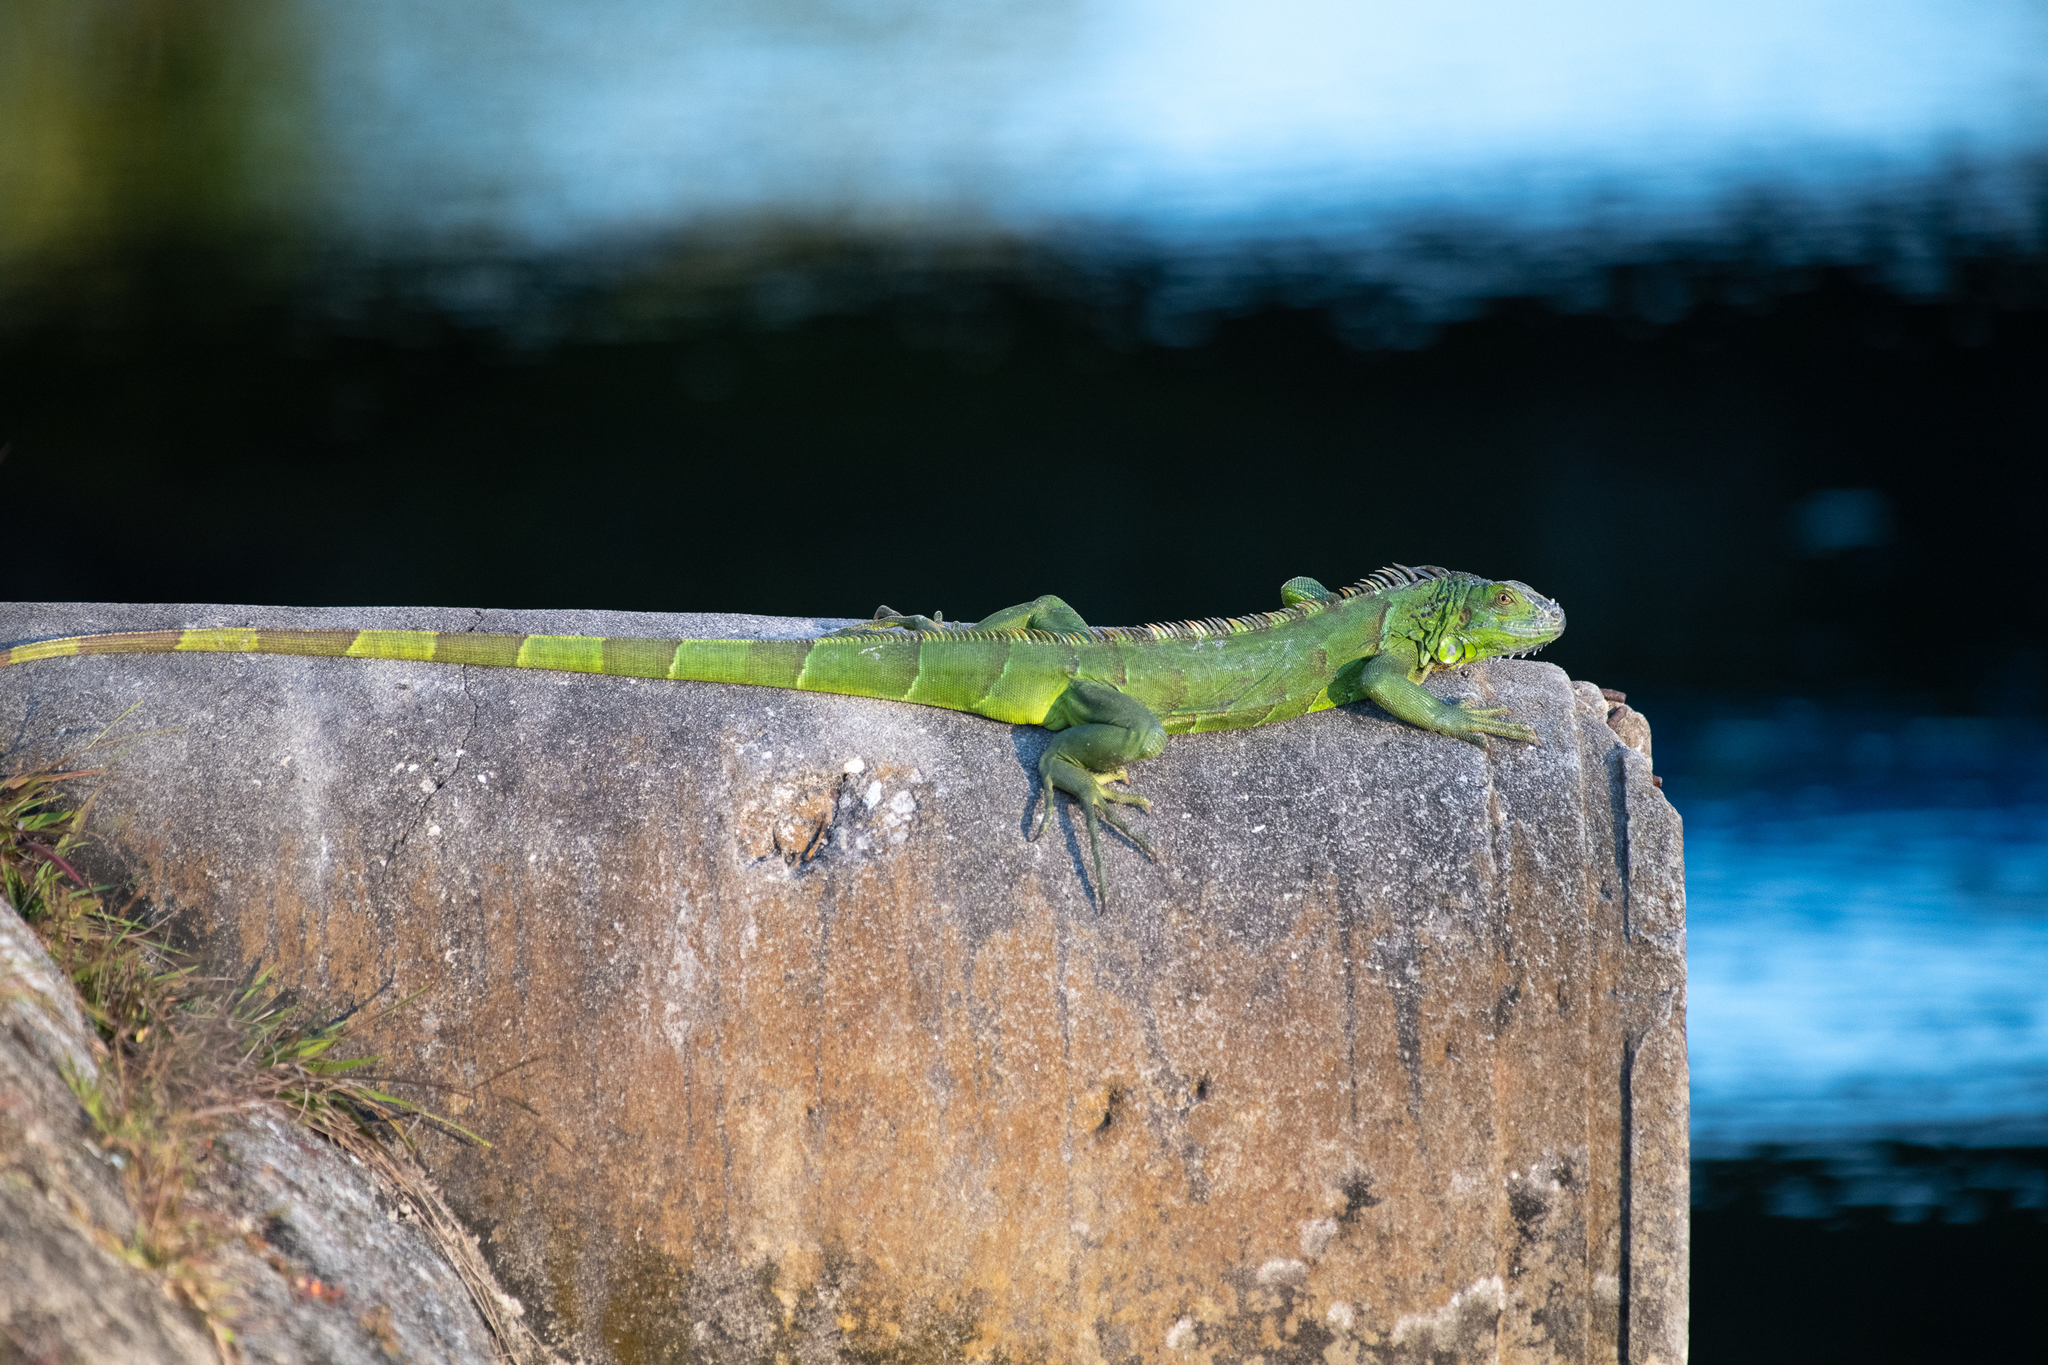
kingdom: Animalia
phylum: Chordata
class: Squamata
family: Iguanidae
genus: Iguana
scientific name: Iguana iguana
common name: Green iguana
